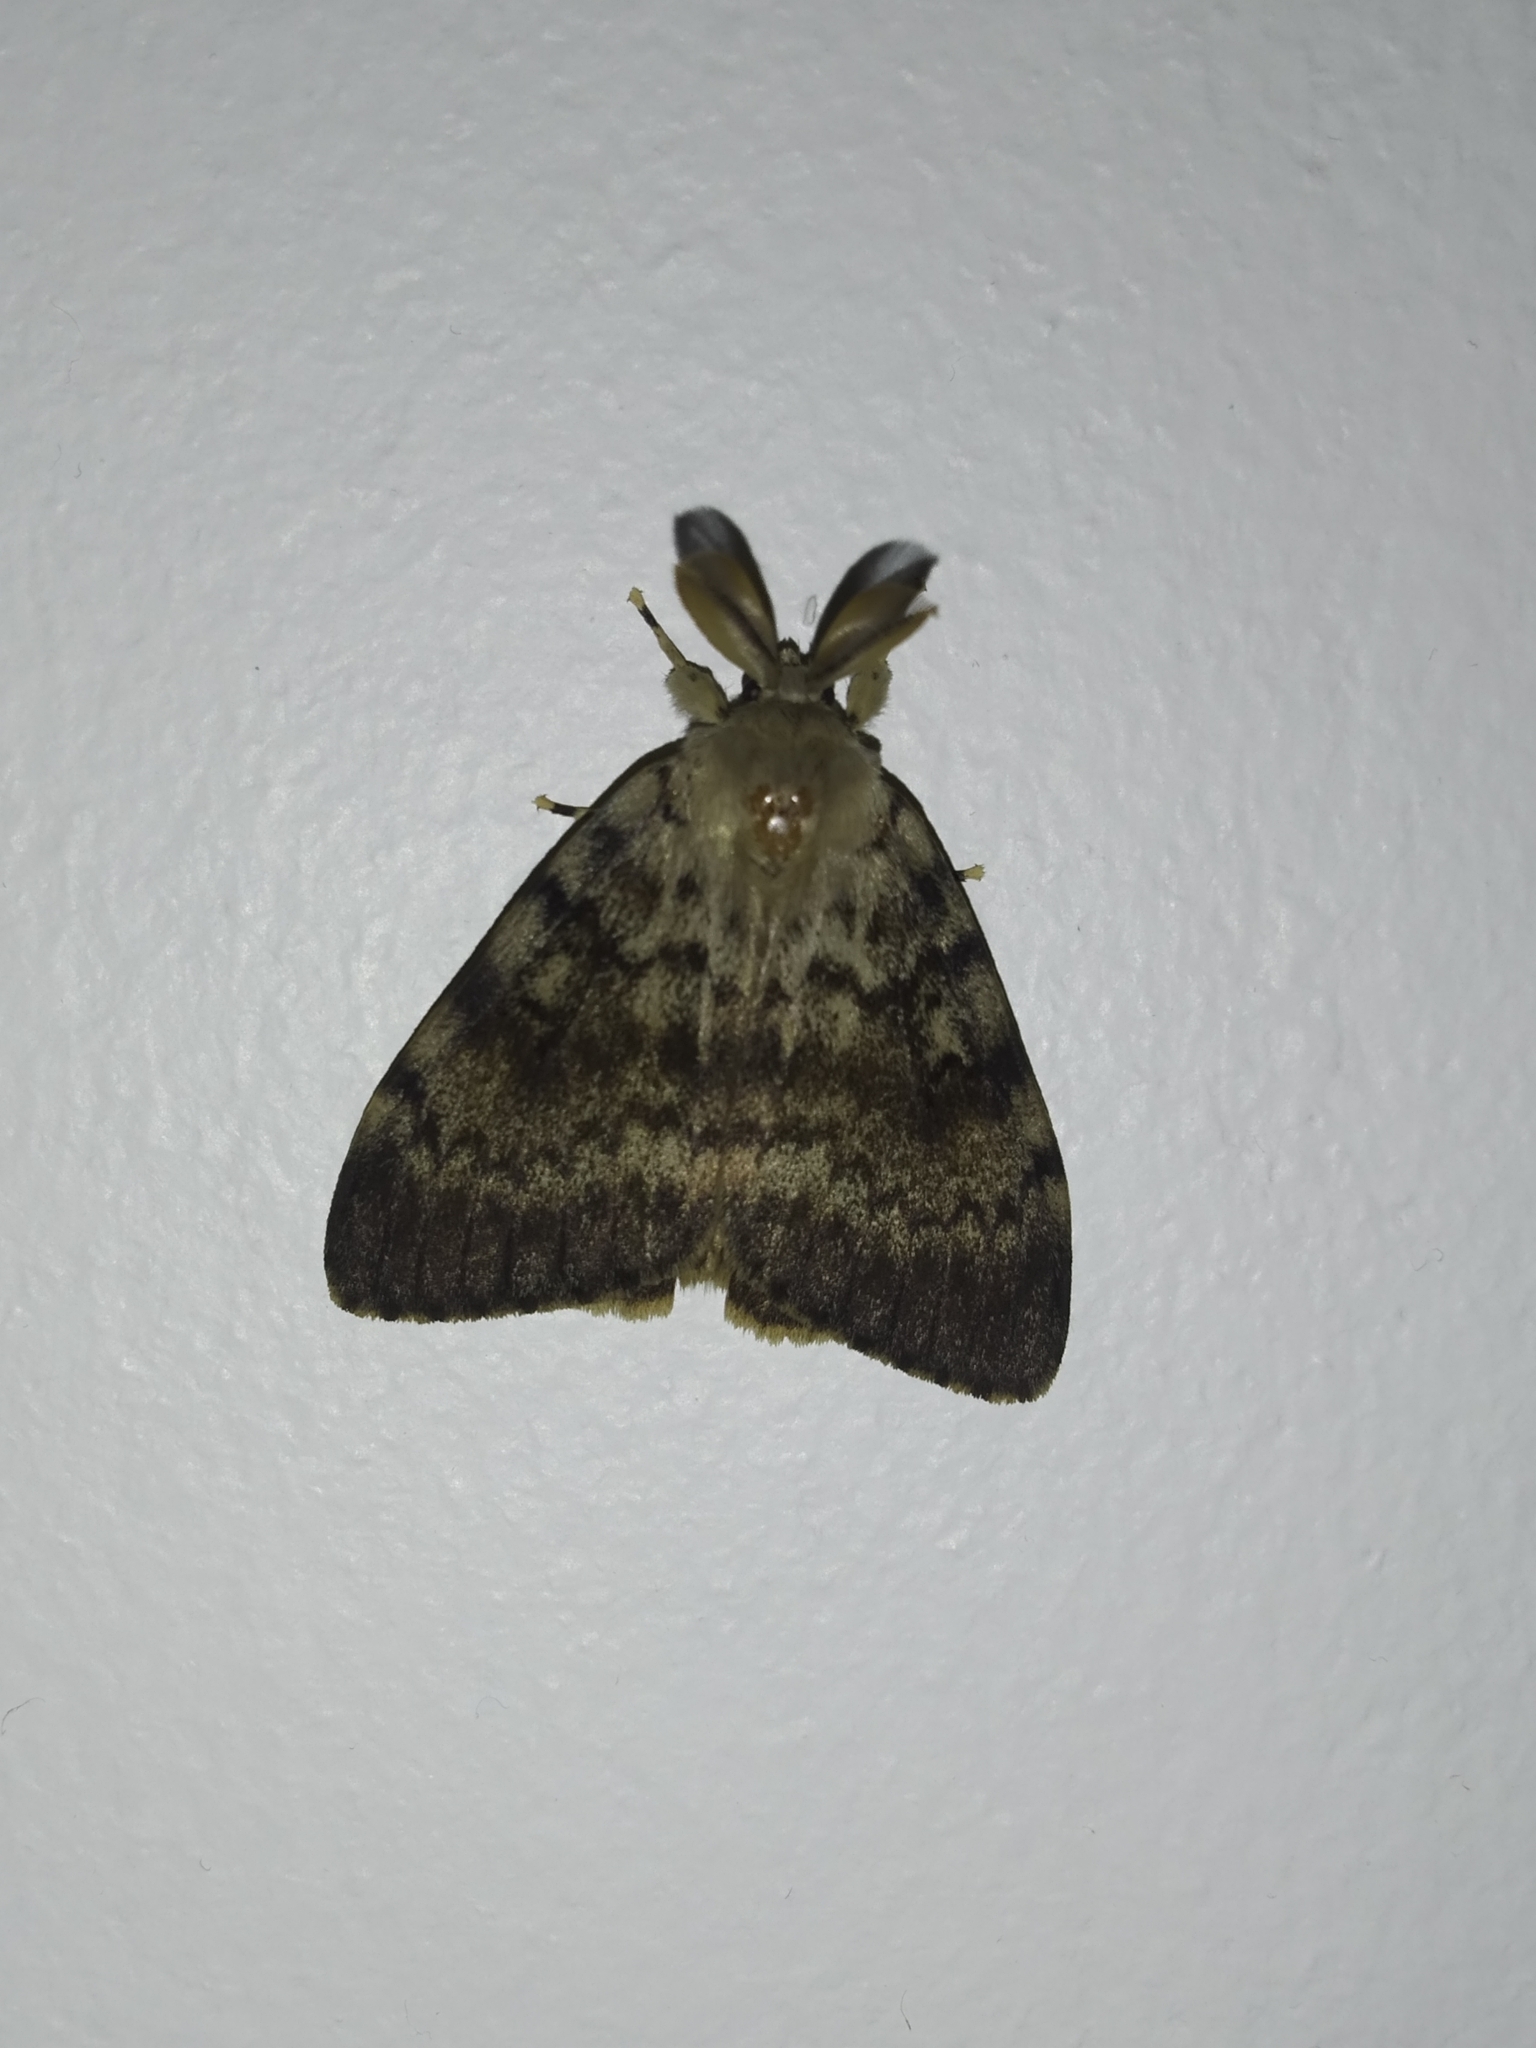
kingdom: Animalia
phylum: Arthropoda
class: Insecta
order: Lepidoptera
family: Erebidae
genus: Lymantria
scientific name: Lymantria dispar
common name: Gypsy moth
